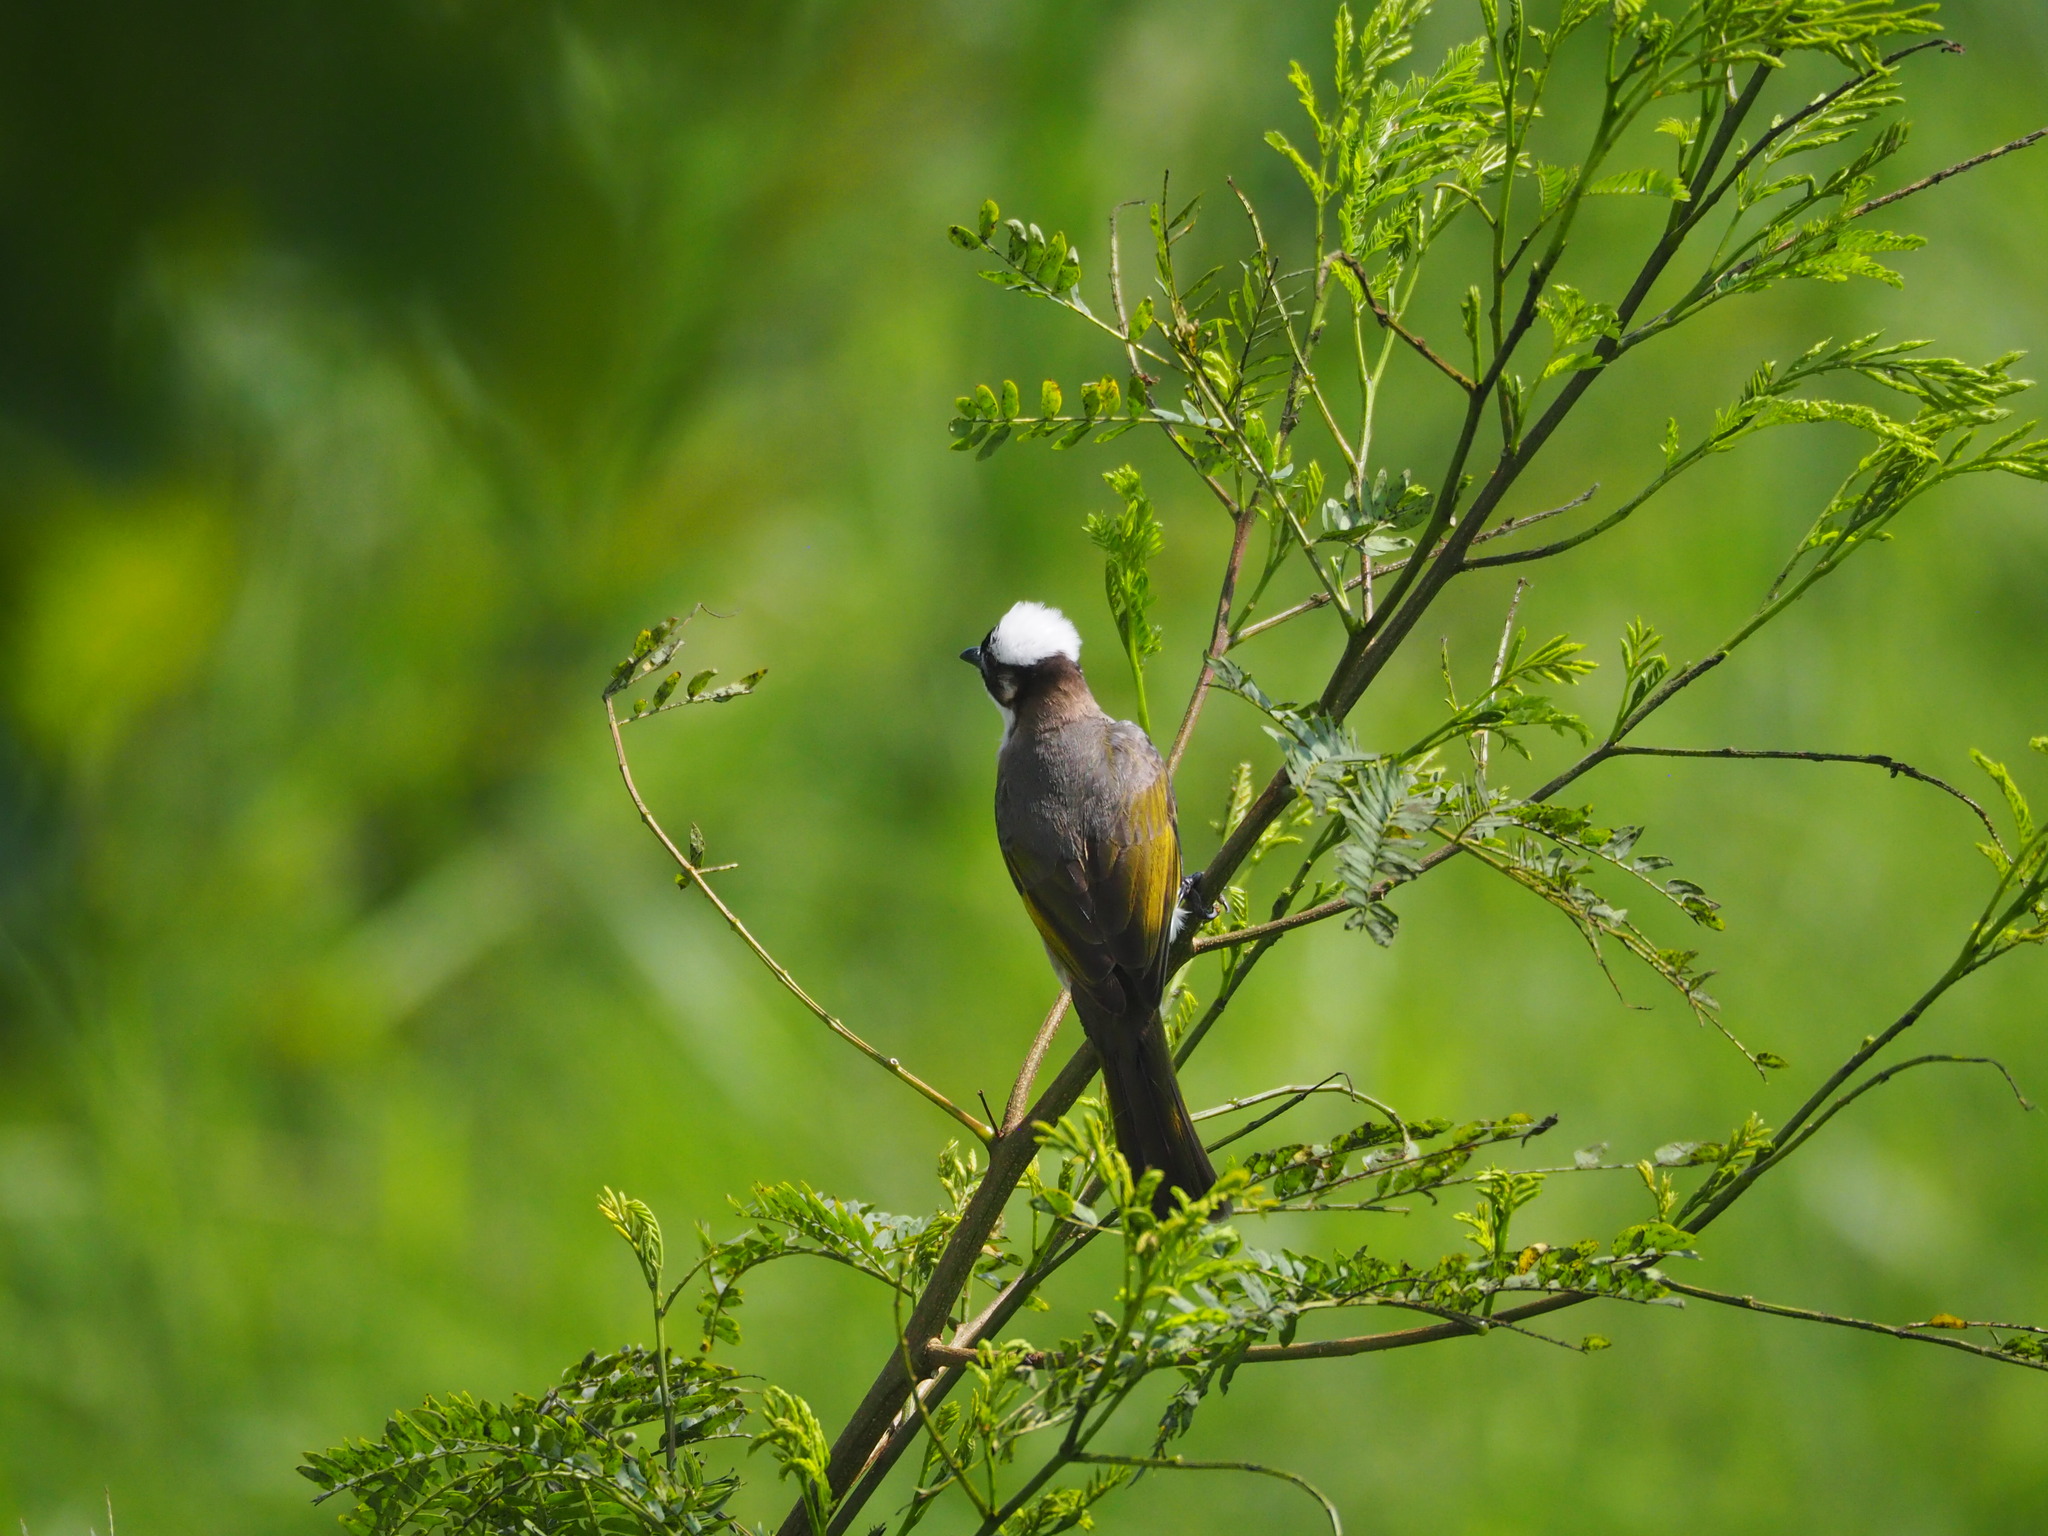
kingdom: Animalia
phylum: Chordata
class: Aves
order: Passeriformes
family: Pycnonotidae
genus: Pycnonotus
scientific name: Pycnonotus sinensis
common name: Light-vented bulbul
